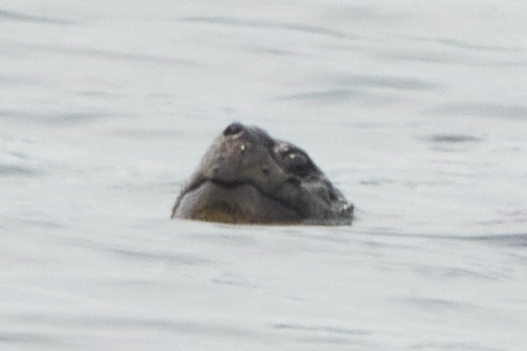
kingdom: Animalia
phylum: Chordata
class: Testudines
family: Chelydridae
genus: Chelydra
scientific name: Chelydra serpentina
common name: Common snapping turtle
